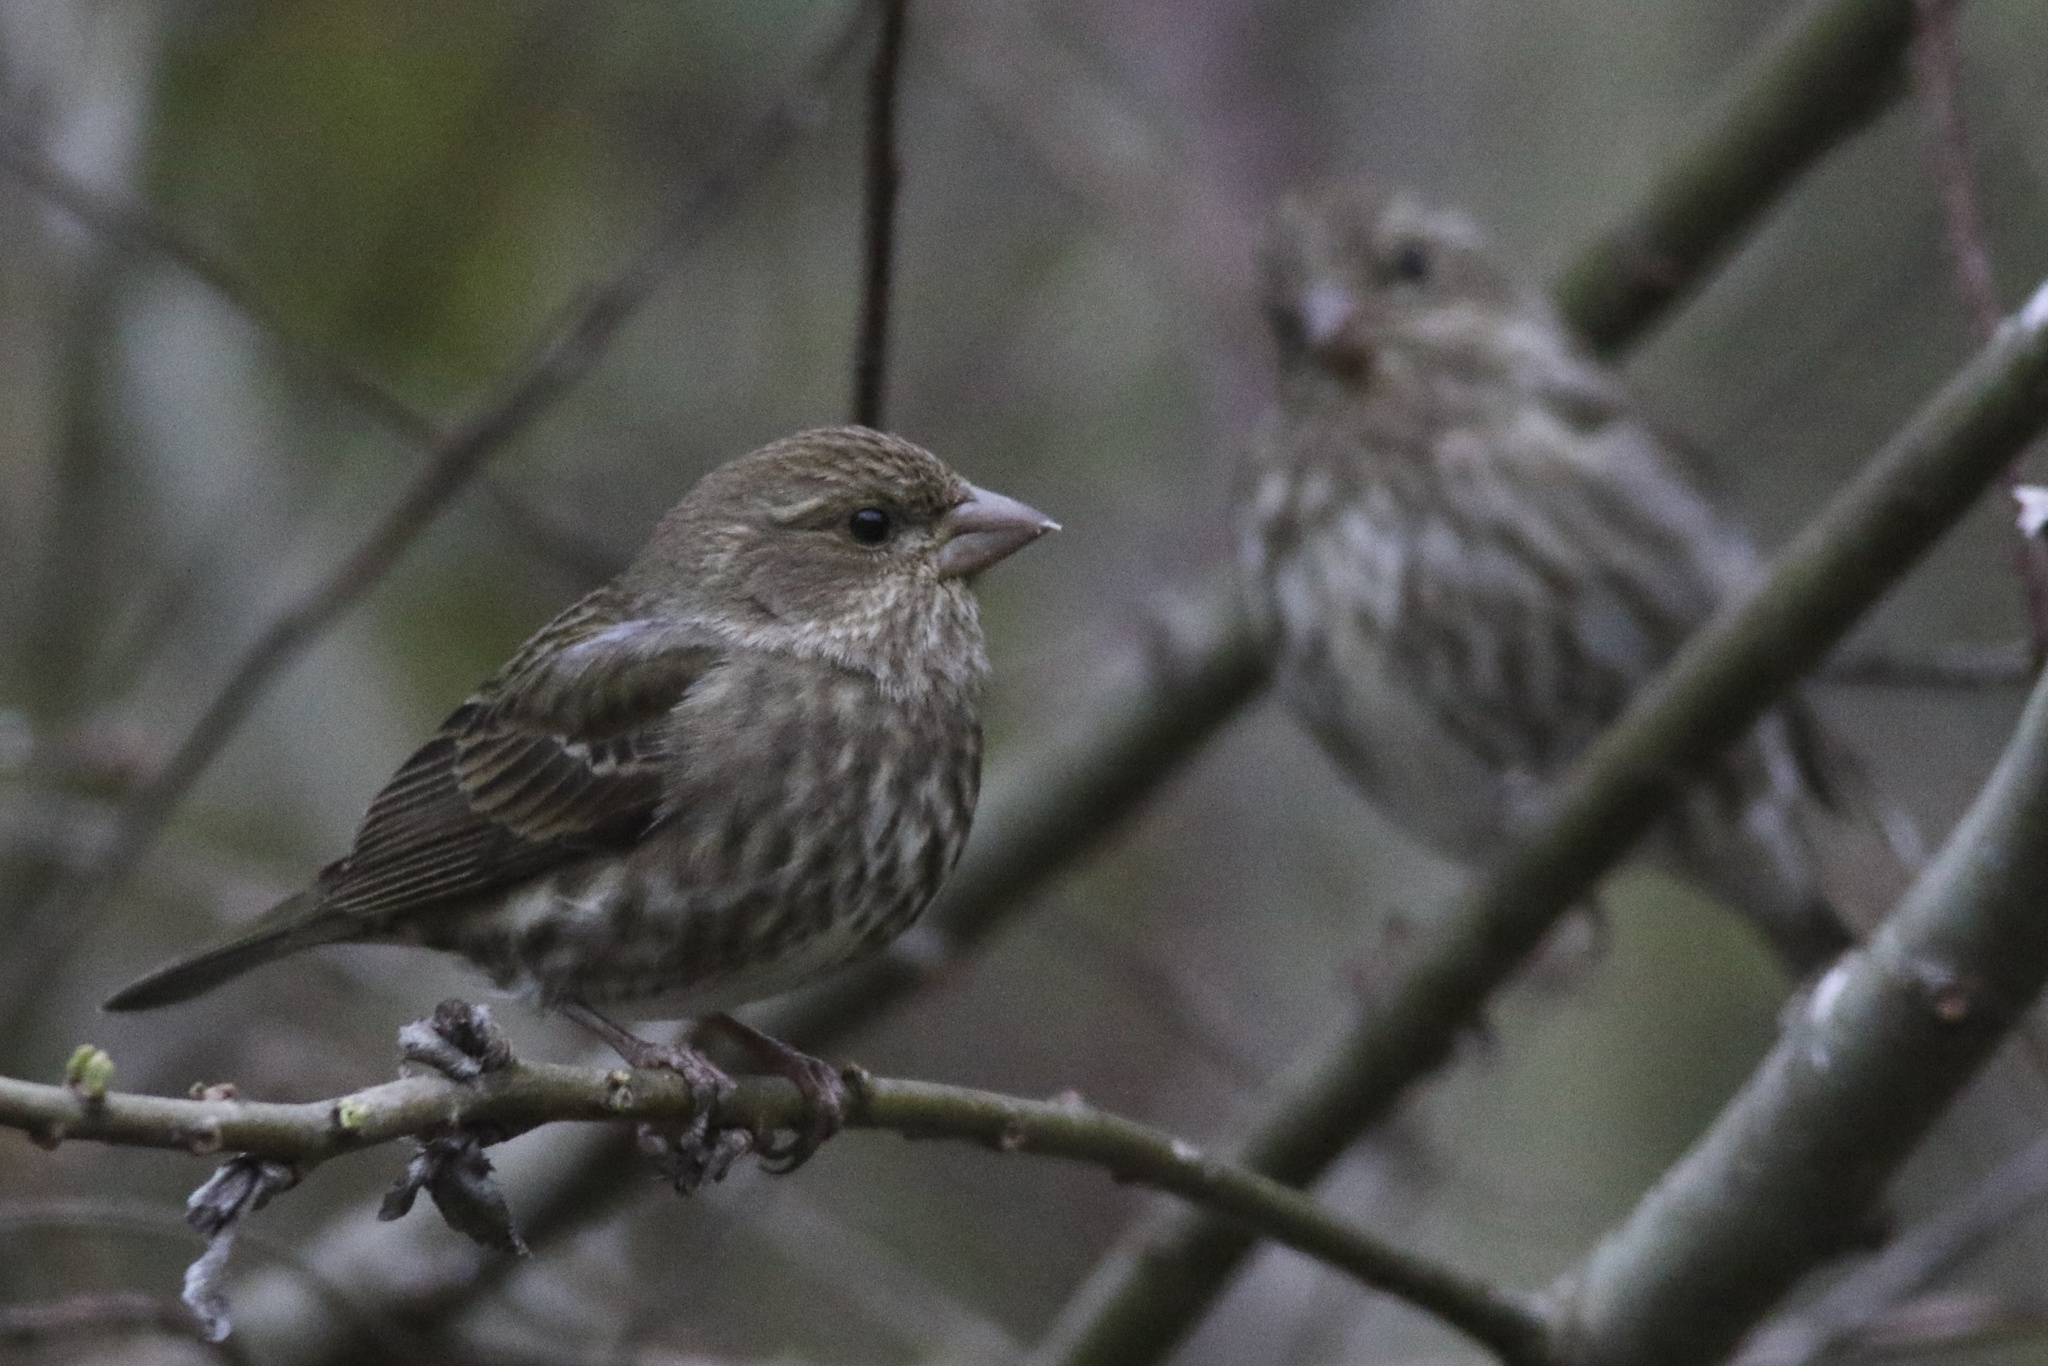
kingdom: Animalia
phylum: Chordata
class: Aves
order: Passeriformes
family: Fringillidae
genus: Haemorhous
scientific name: Haemorhous purpureus
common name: Purple finch
